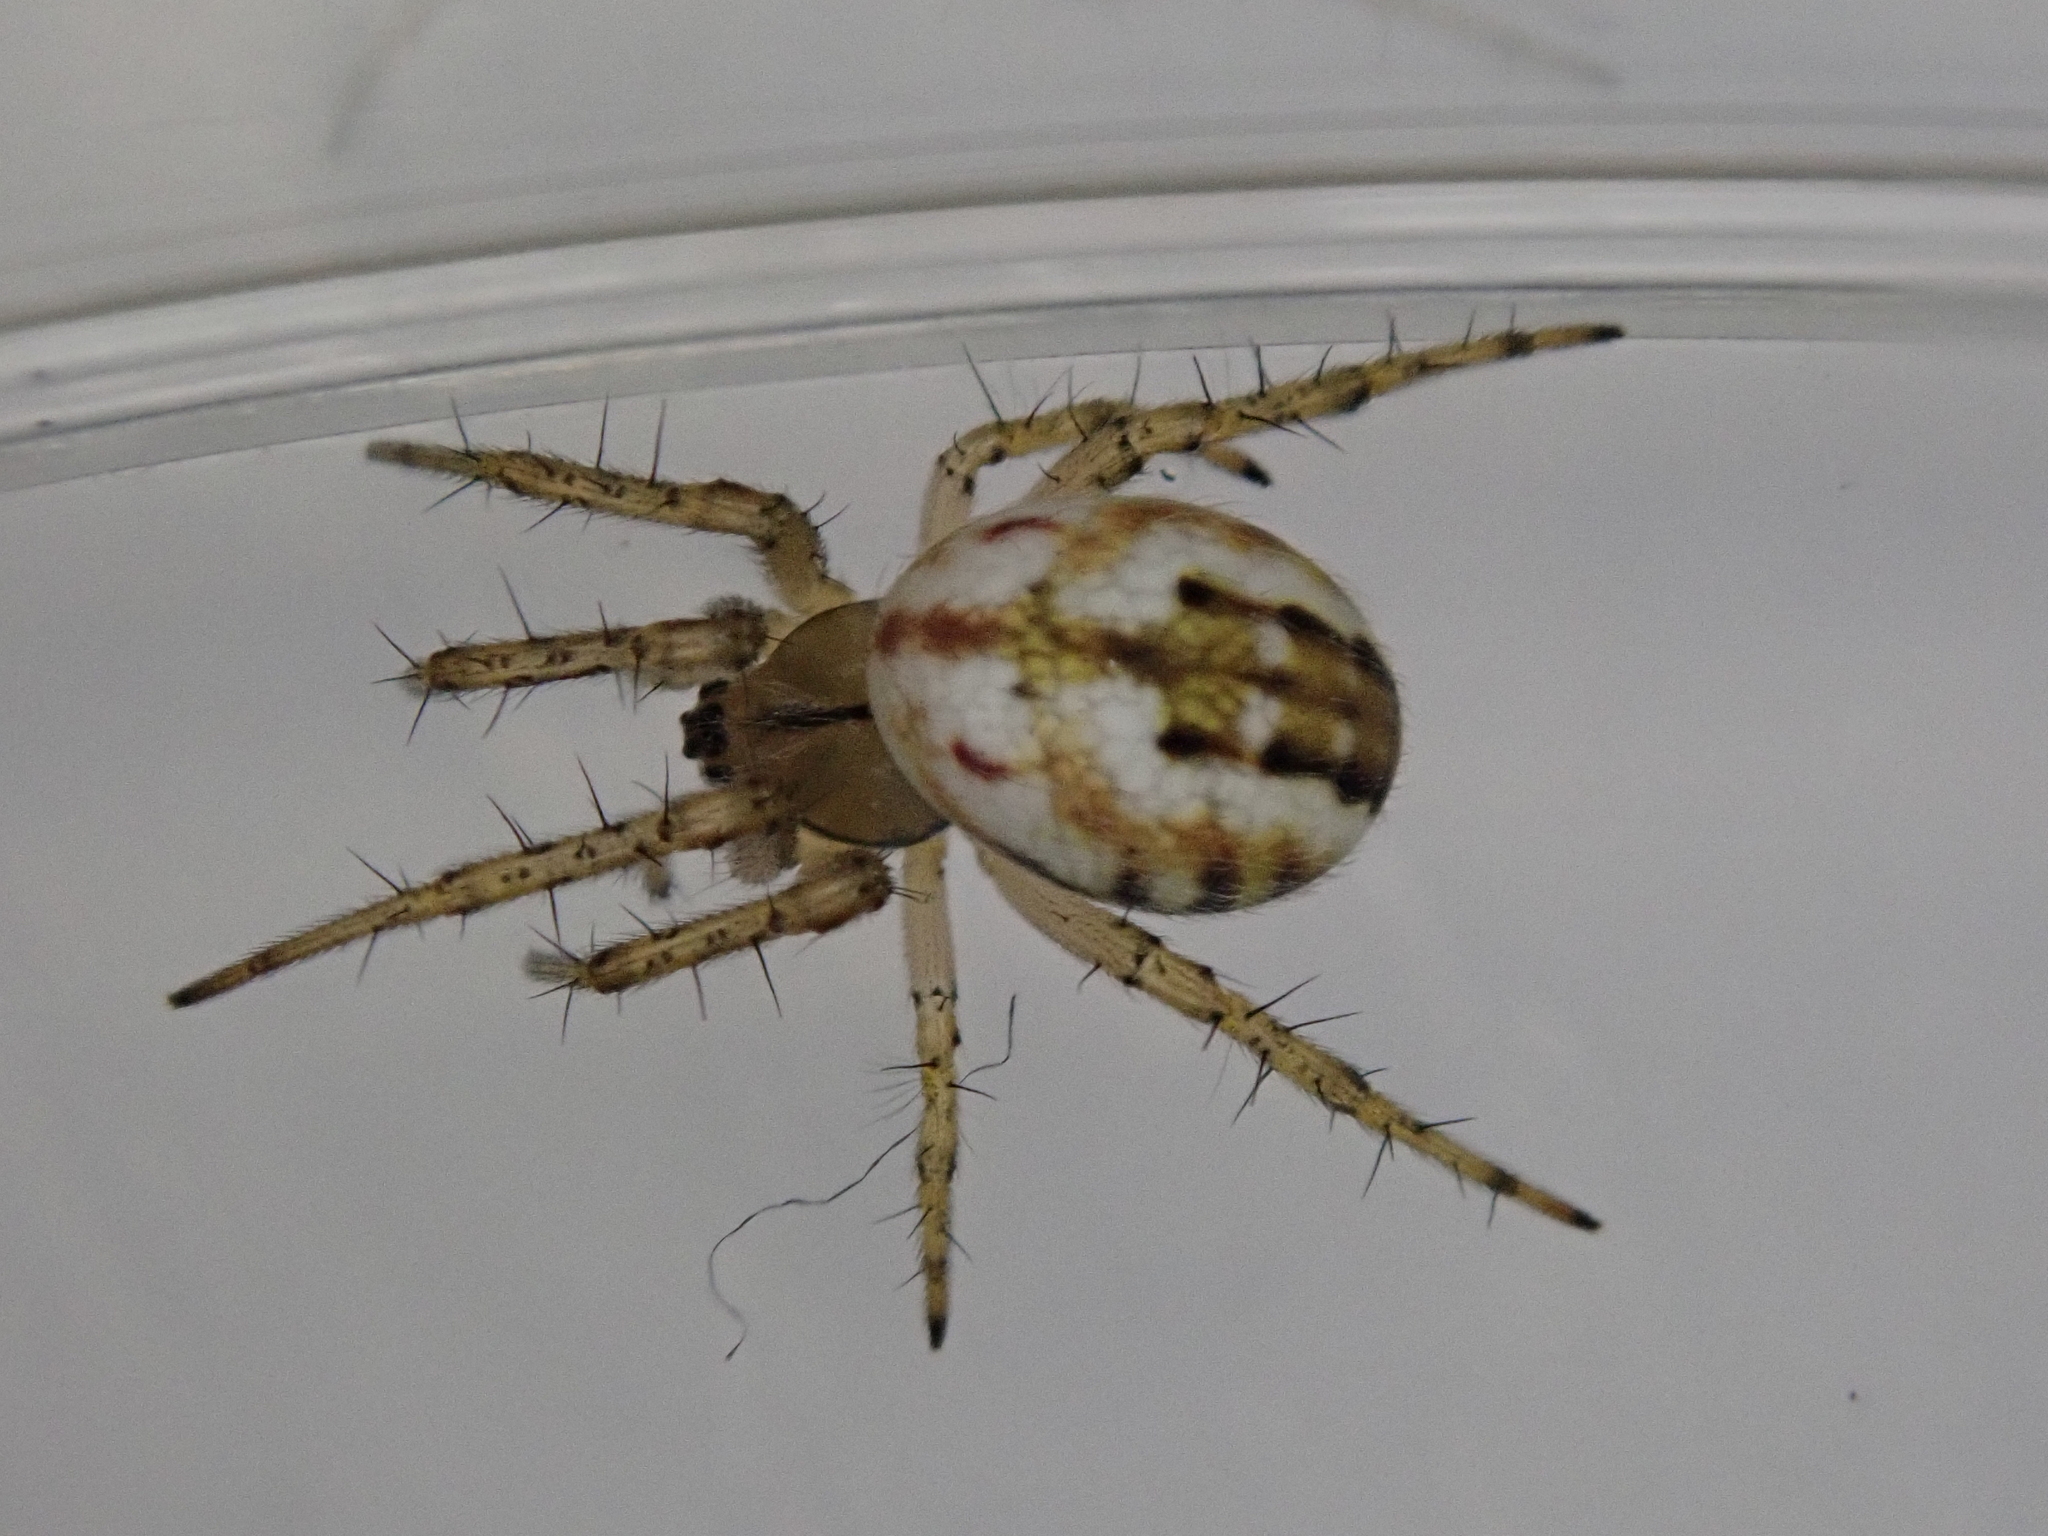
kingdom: Animalia
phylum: Arthropoda
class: Arachnida
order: Araneae
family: Araneidae
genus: Mangora
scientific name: Mangora acalypha
